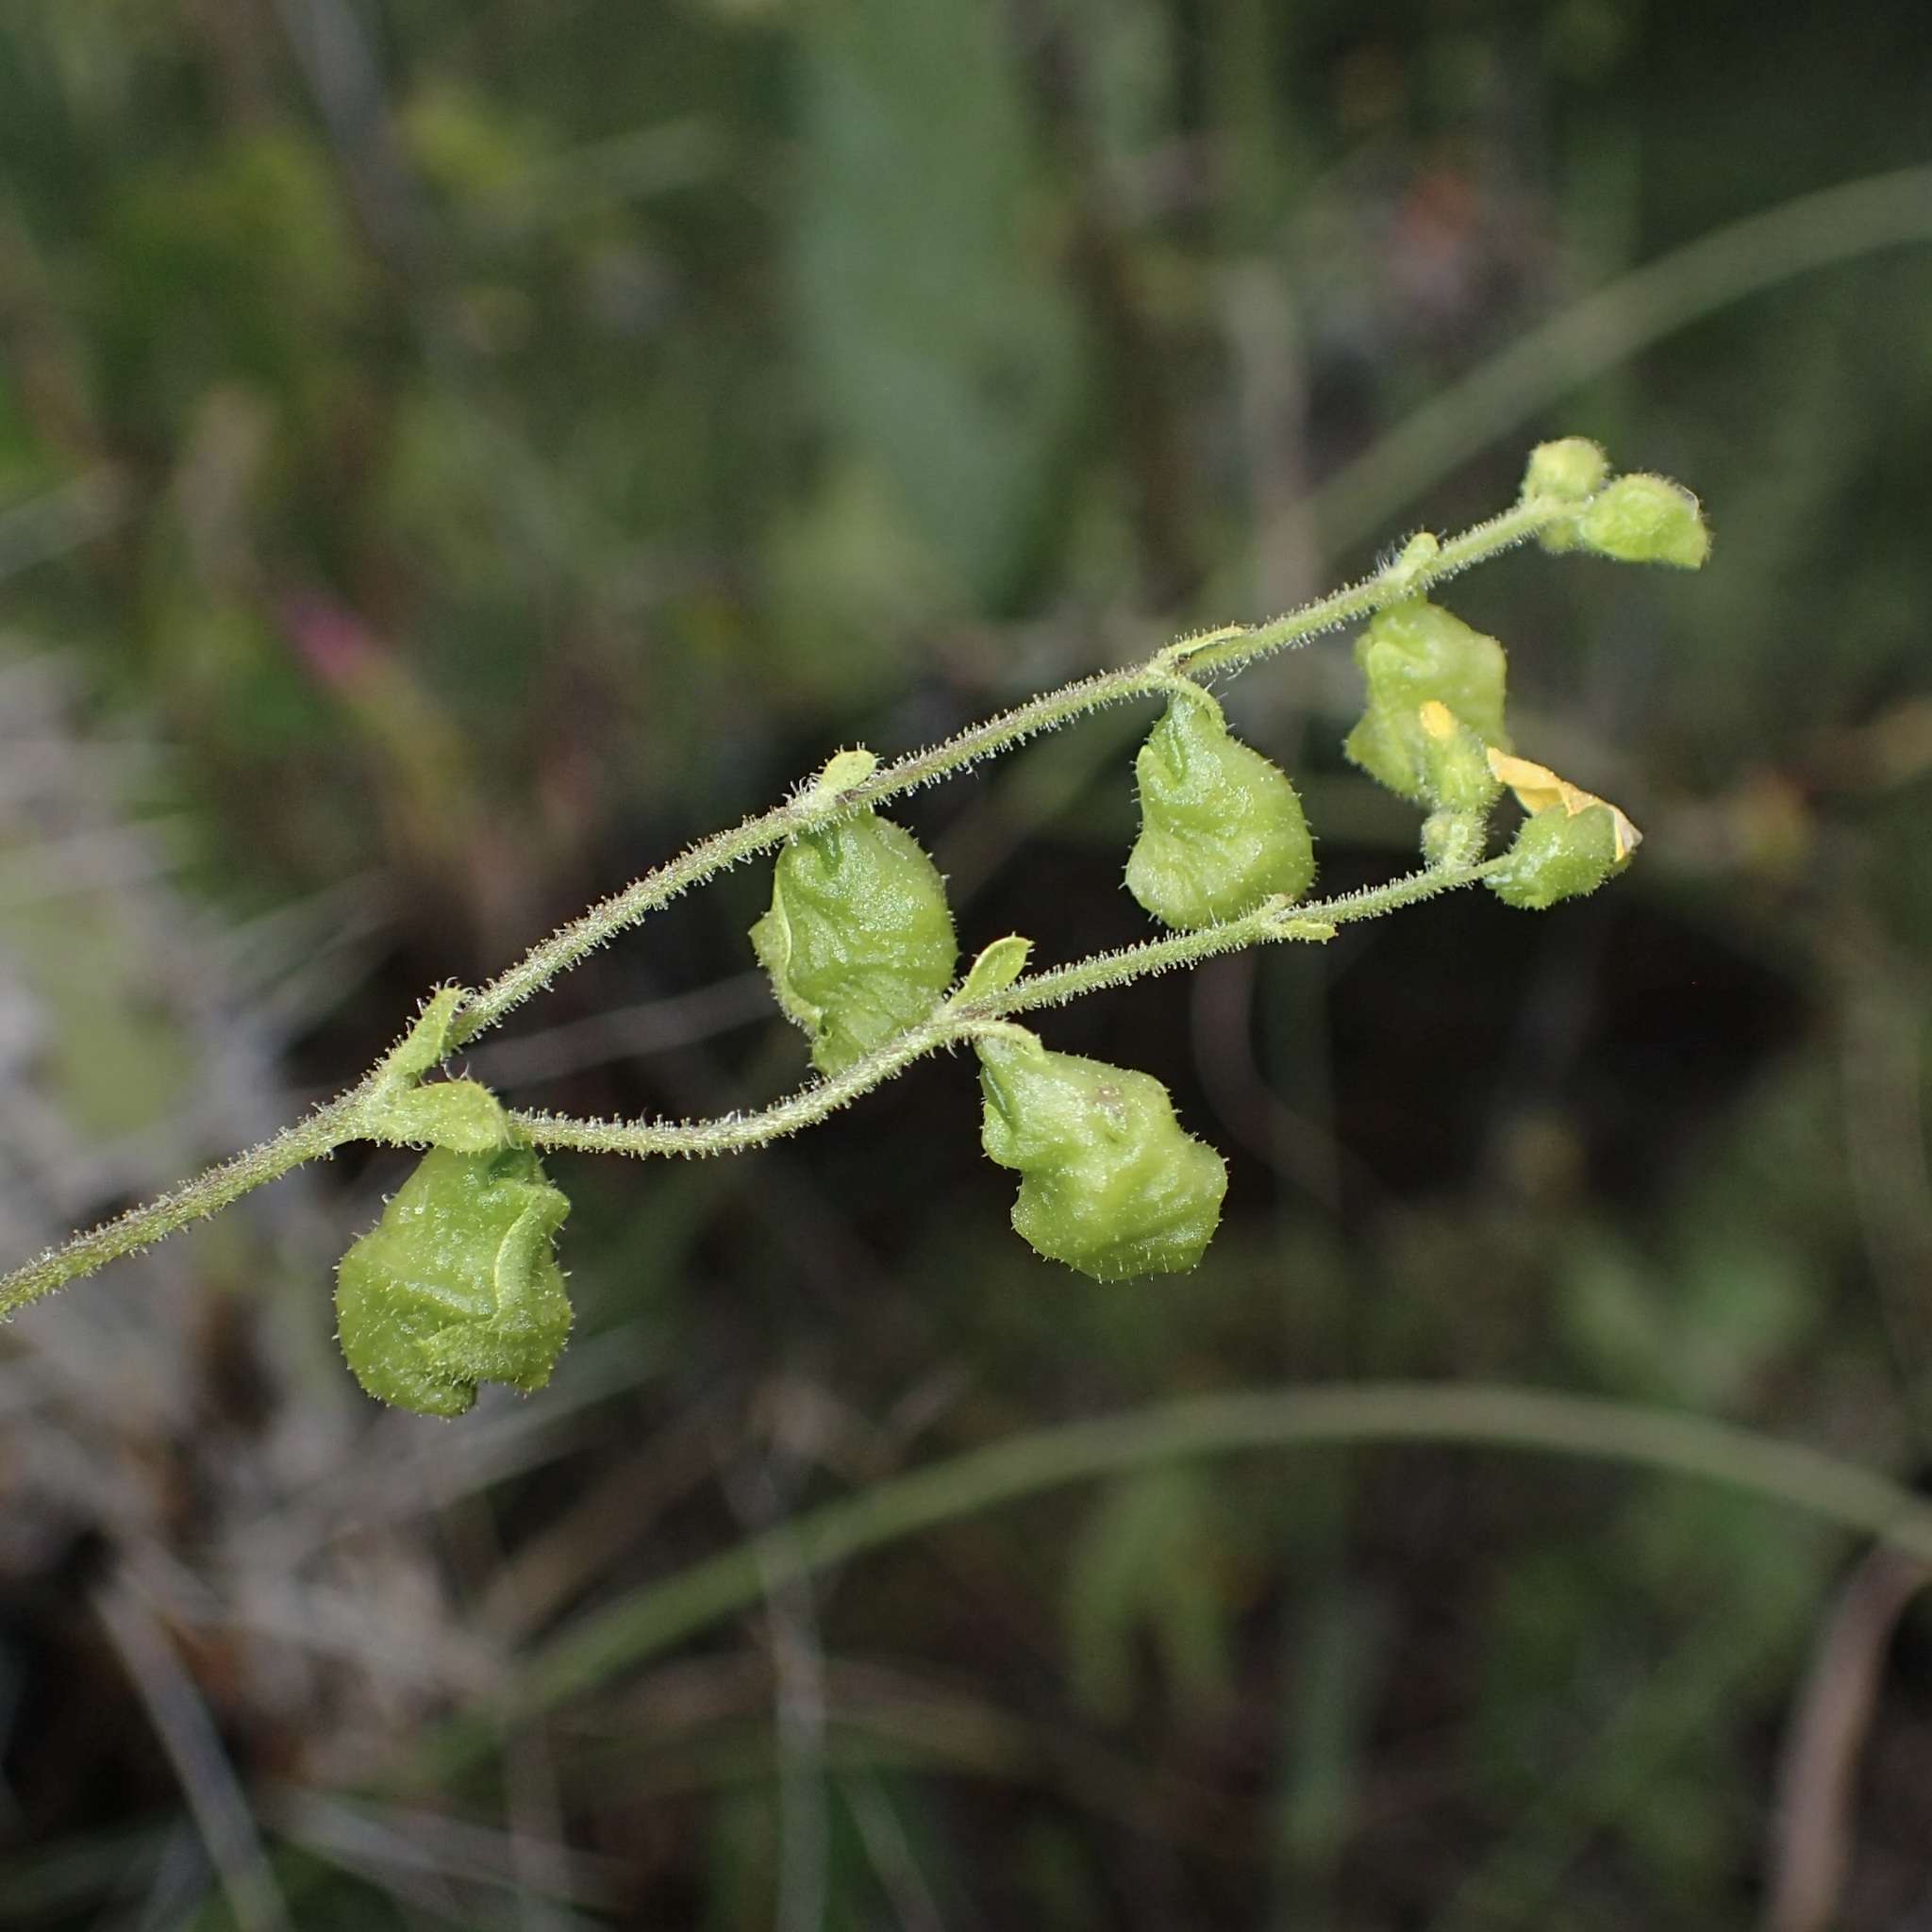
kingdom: Plantae
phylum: Tracheophyta
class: Magnoliopsida
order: Asterales
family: Asteraceae
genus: Milleria
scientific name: Milleria quinqueflora
